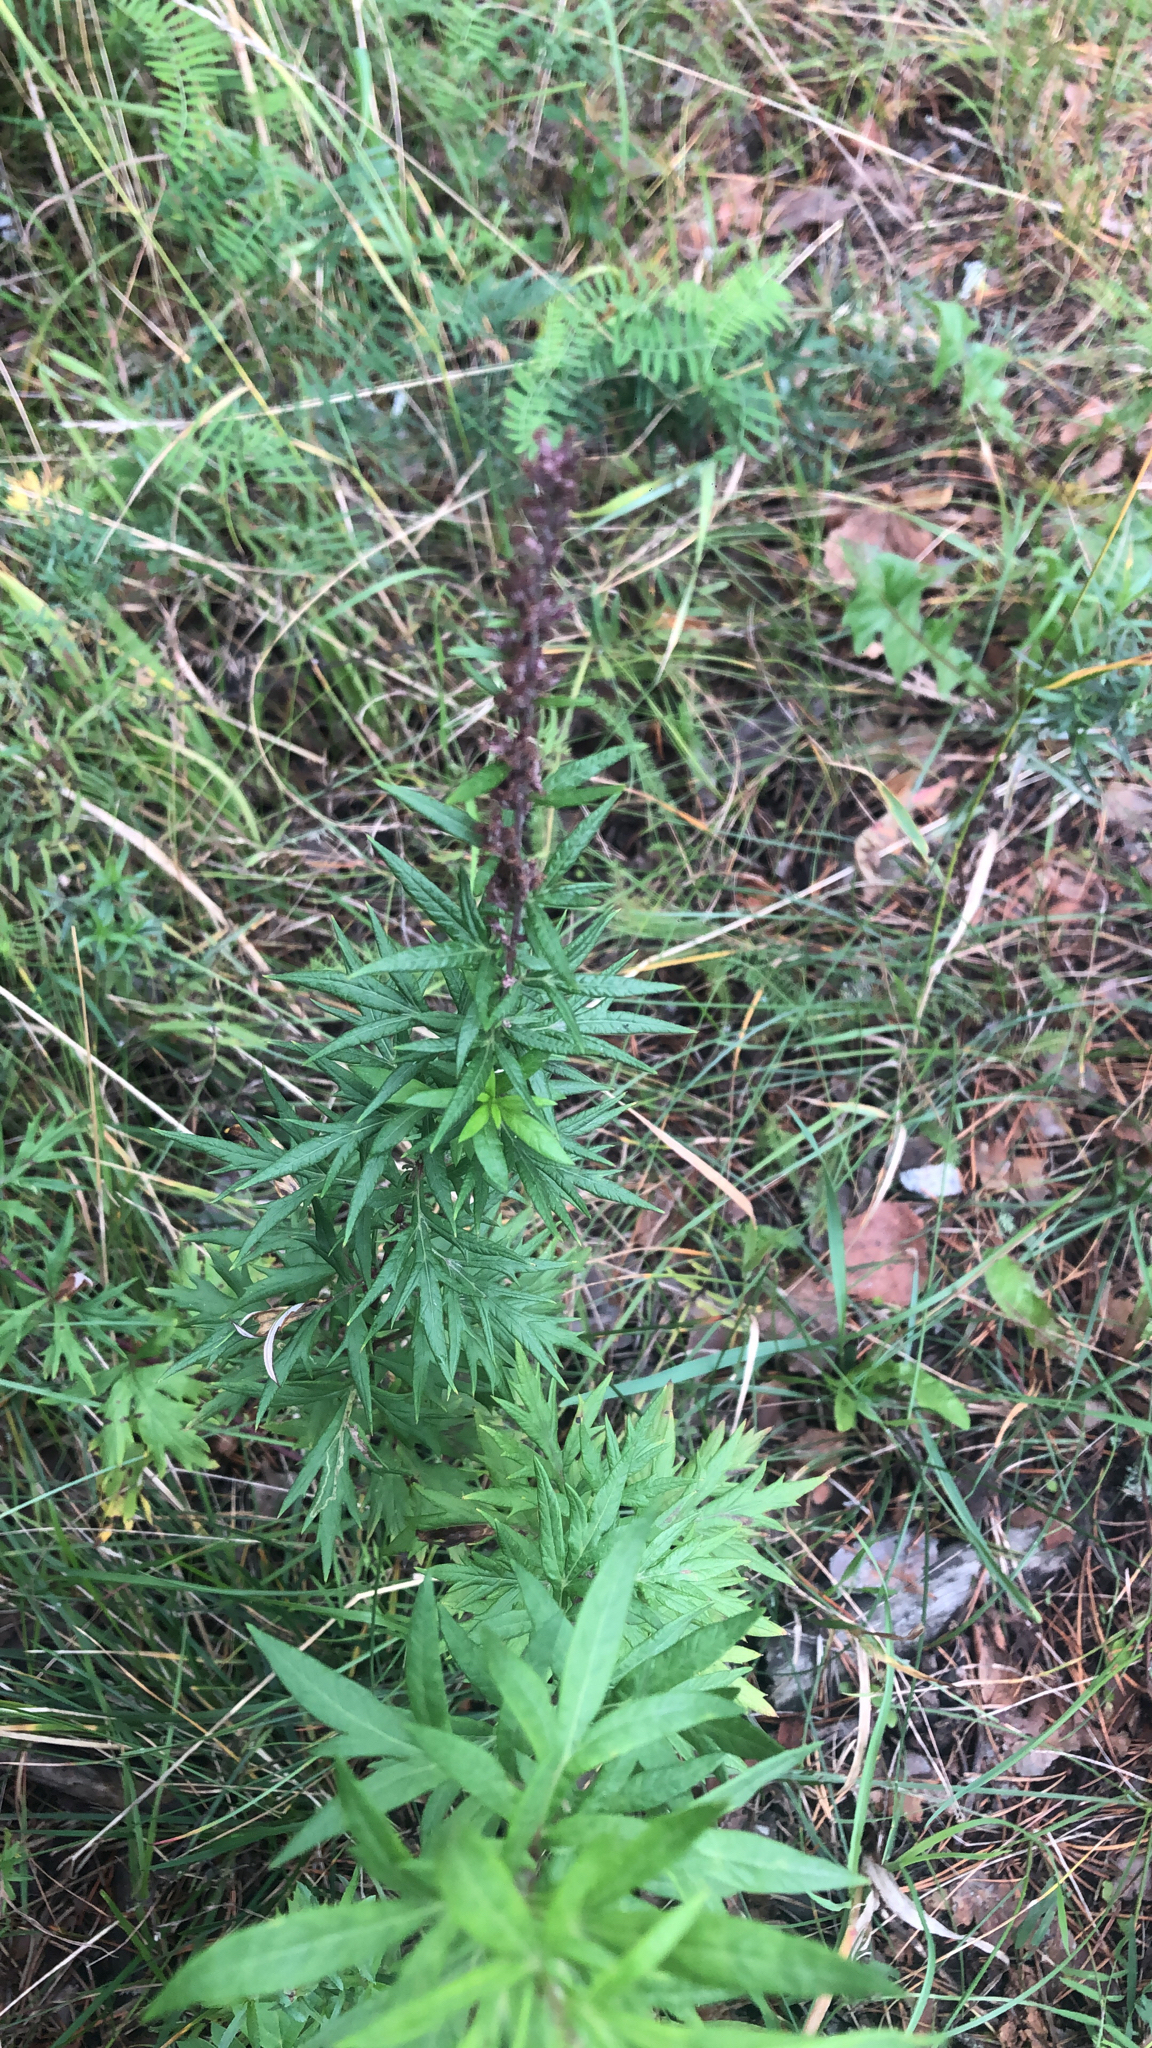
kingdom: Plantae
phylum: Tracheophyta
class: Magnoliopsida
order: Asterales
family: Asteraceae
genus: Artemisia
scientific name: Artemisia vulgaris
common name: Mugwort
